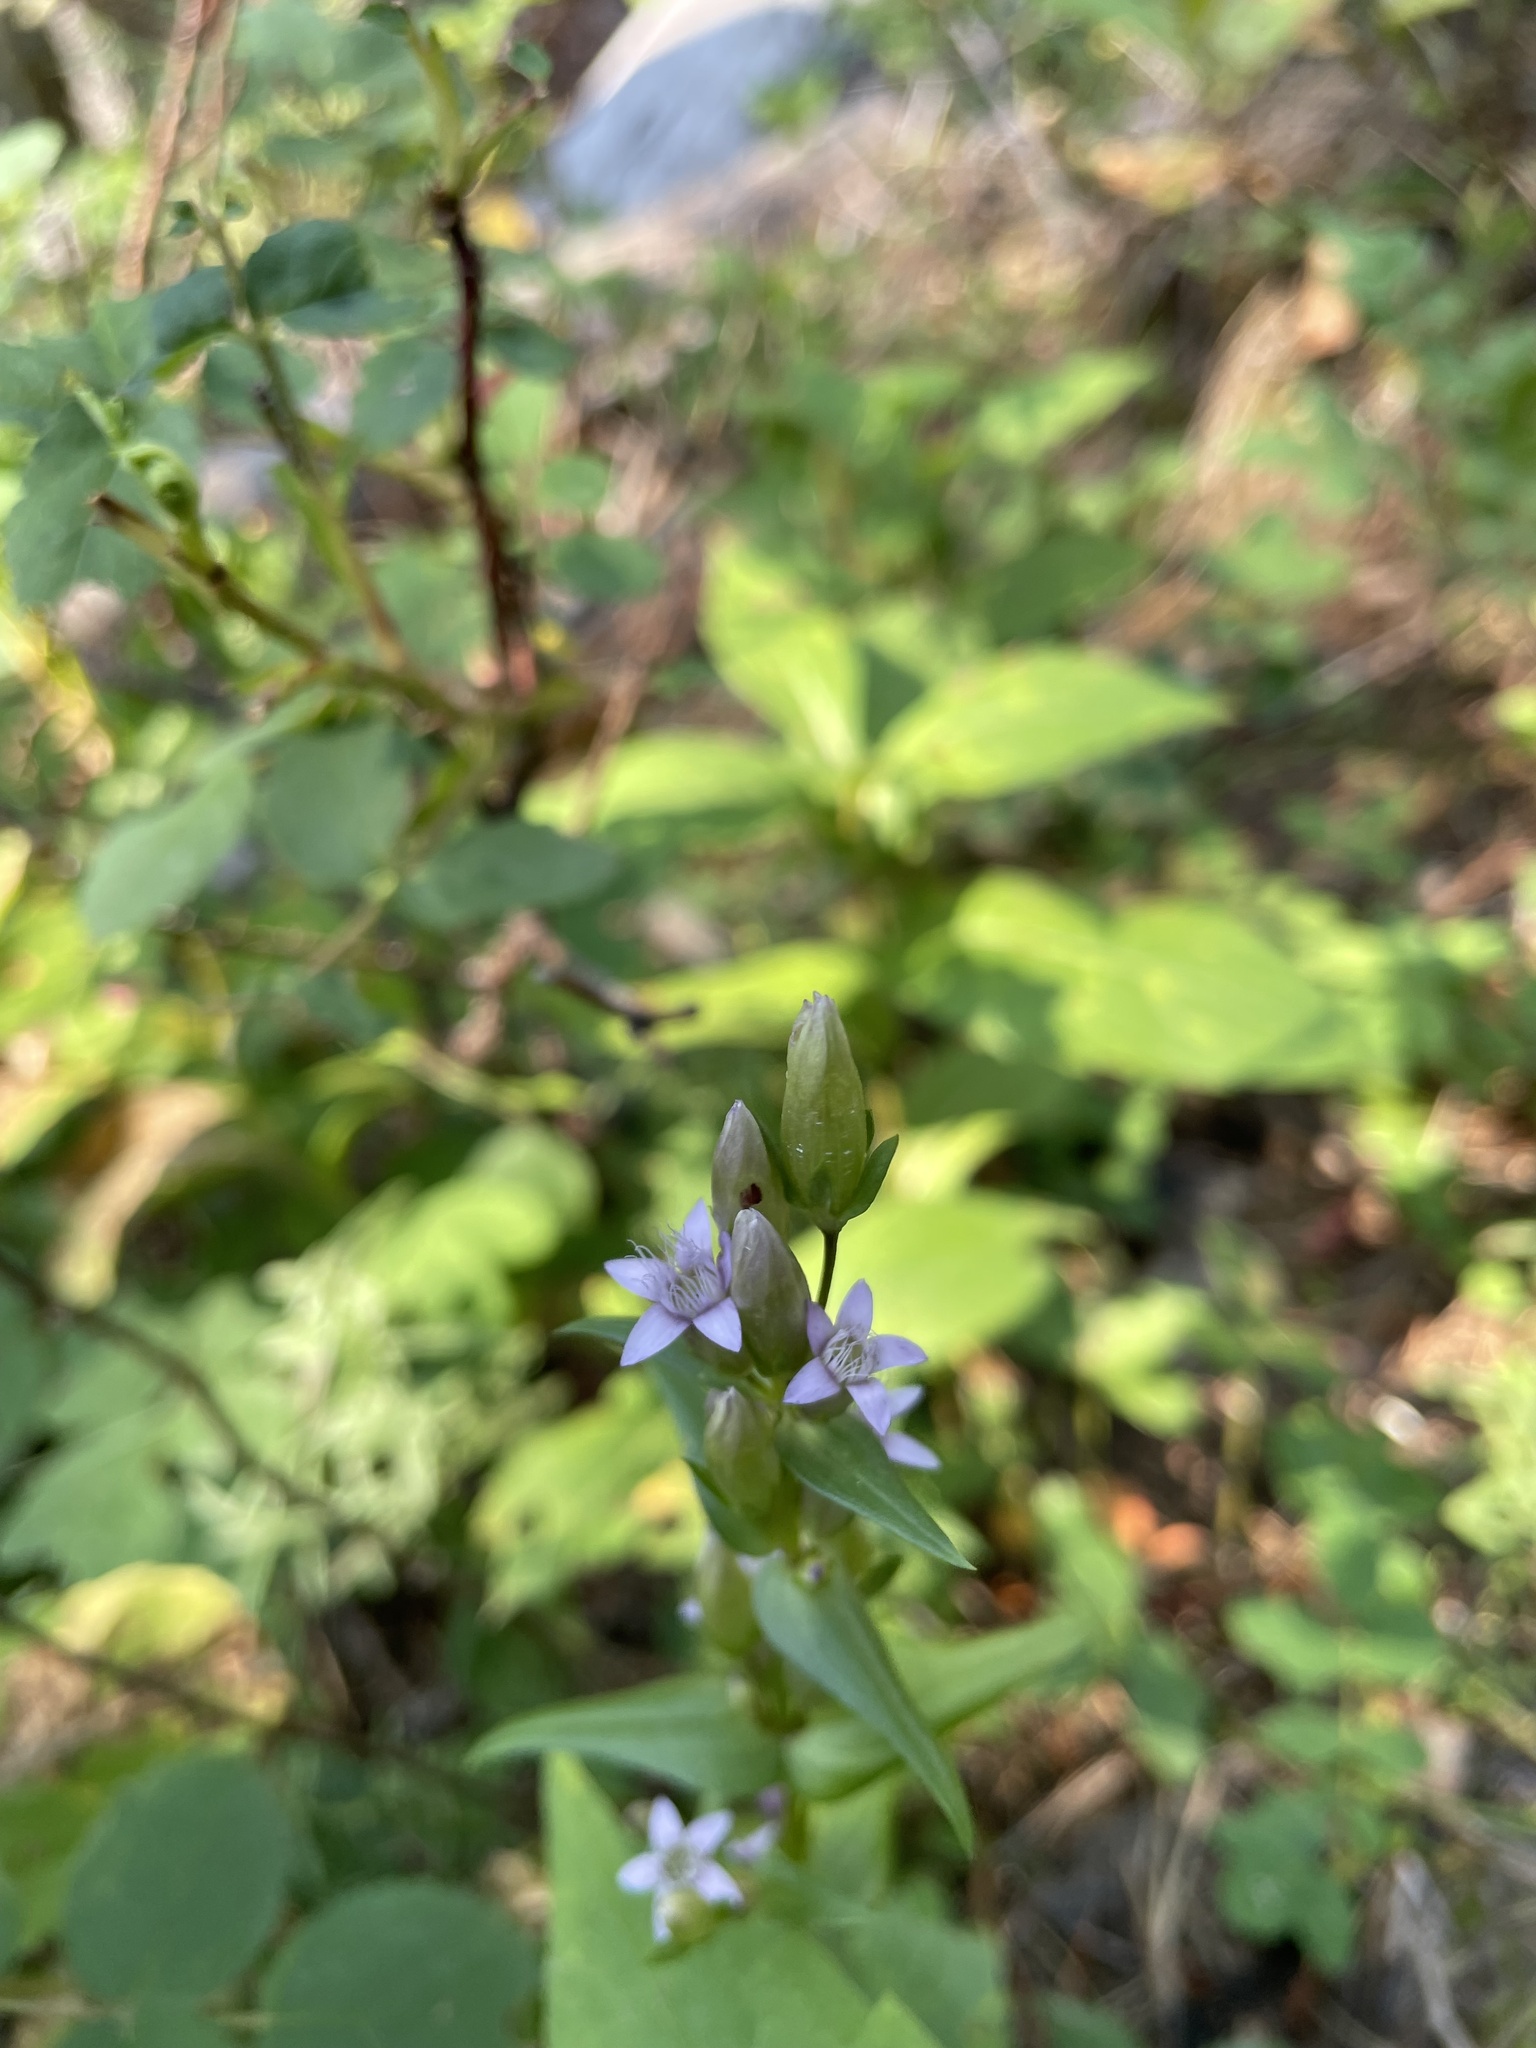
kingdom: Plantae
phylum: Tracheophyta
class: Magnoliopsida
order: Gentianales
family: Gentianaceae
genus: Gentianella
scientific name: Gentianella amarella
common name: Autumn gentian
